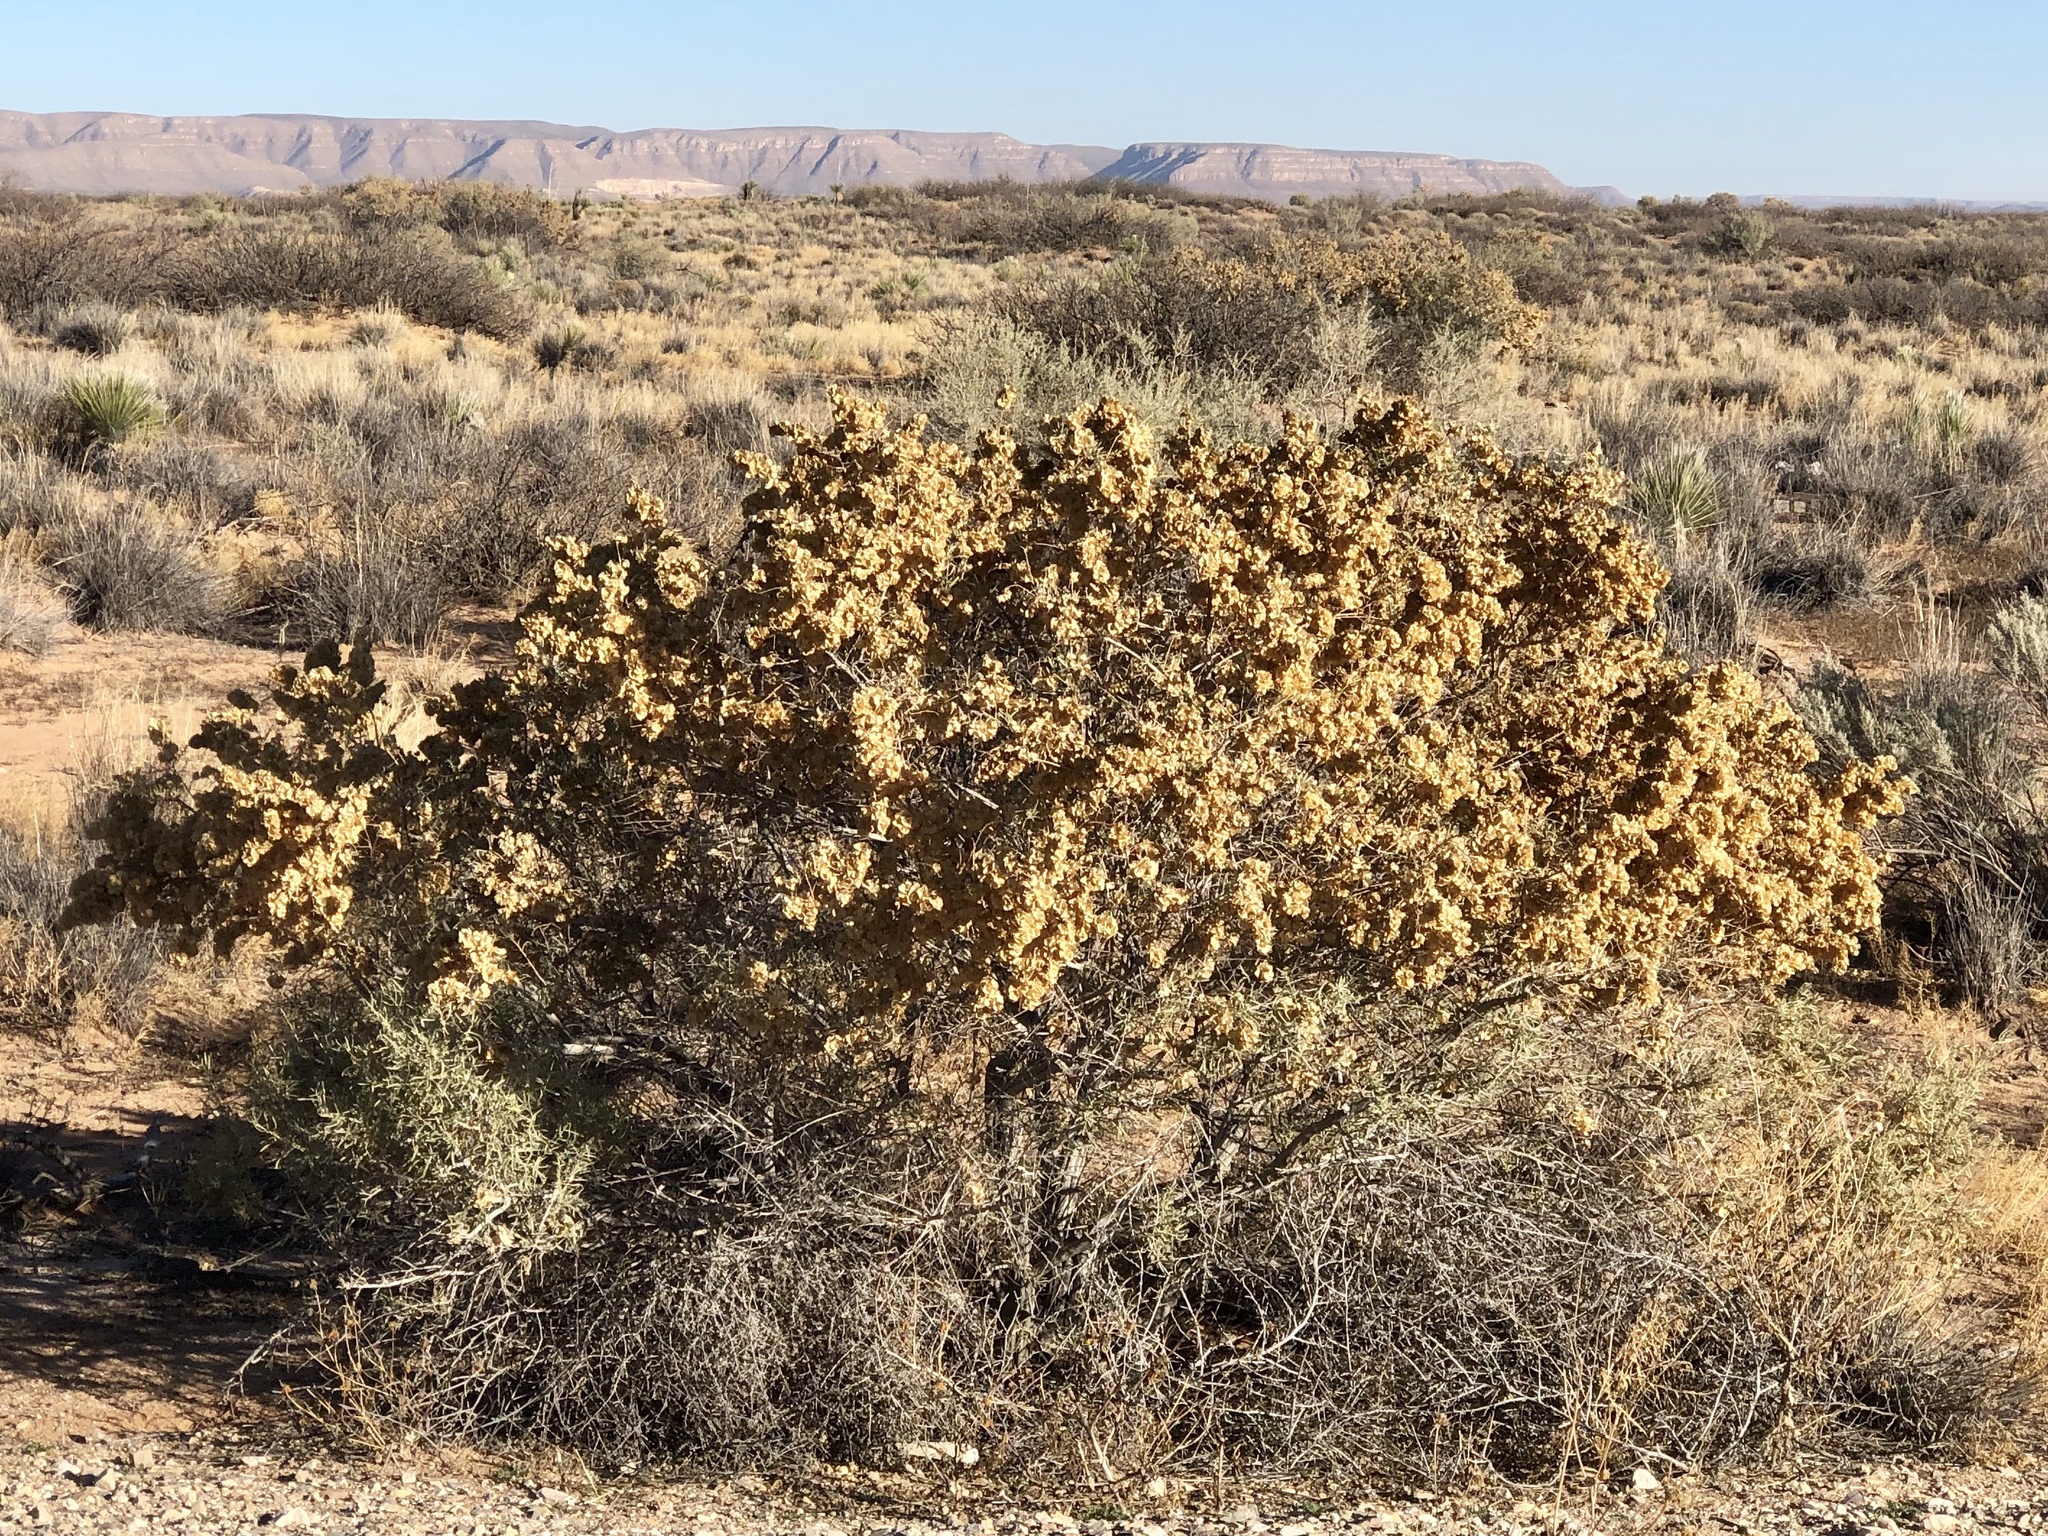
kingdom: Plantae
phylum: Tracheophyta
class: Magnoliopsida
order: Caryophyllales
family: Amaranthaceae
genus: Atriplex
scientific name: Atriplex canescens
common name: Four-wing saltbush
